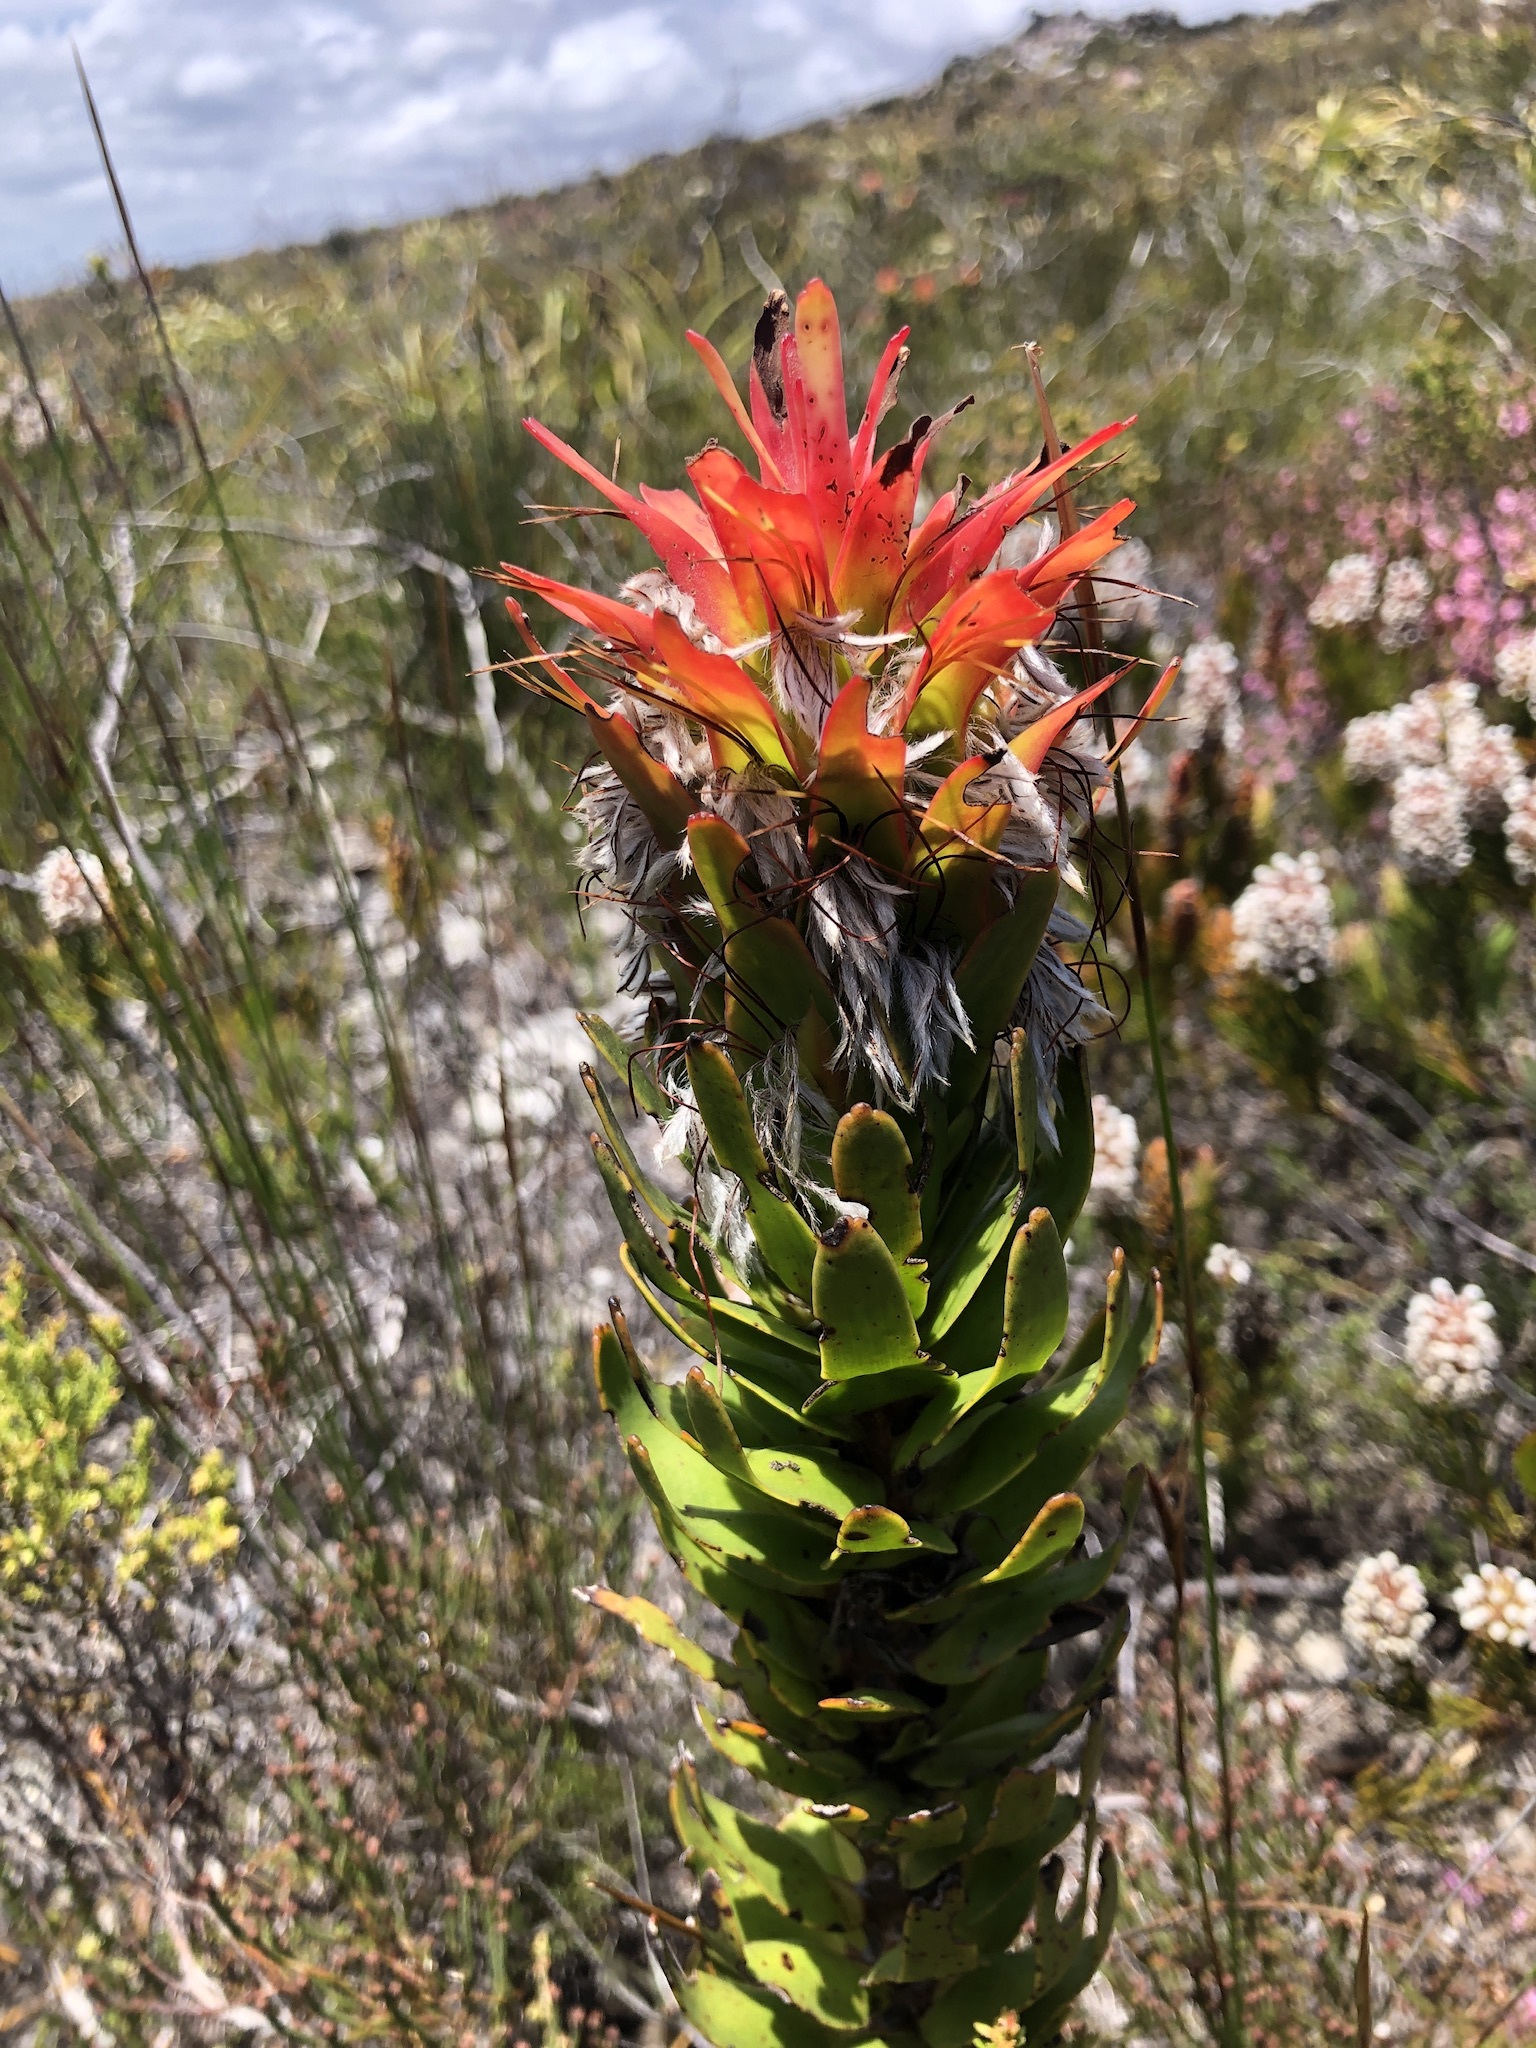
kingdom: Plantae
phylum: Tracheophyta
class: Magnoliopsida
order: Proteales
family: Proteaceae
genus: Mimetes
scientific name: Mimetes cucullatus
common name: Common pagoda
